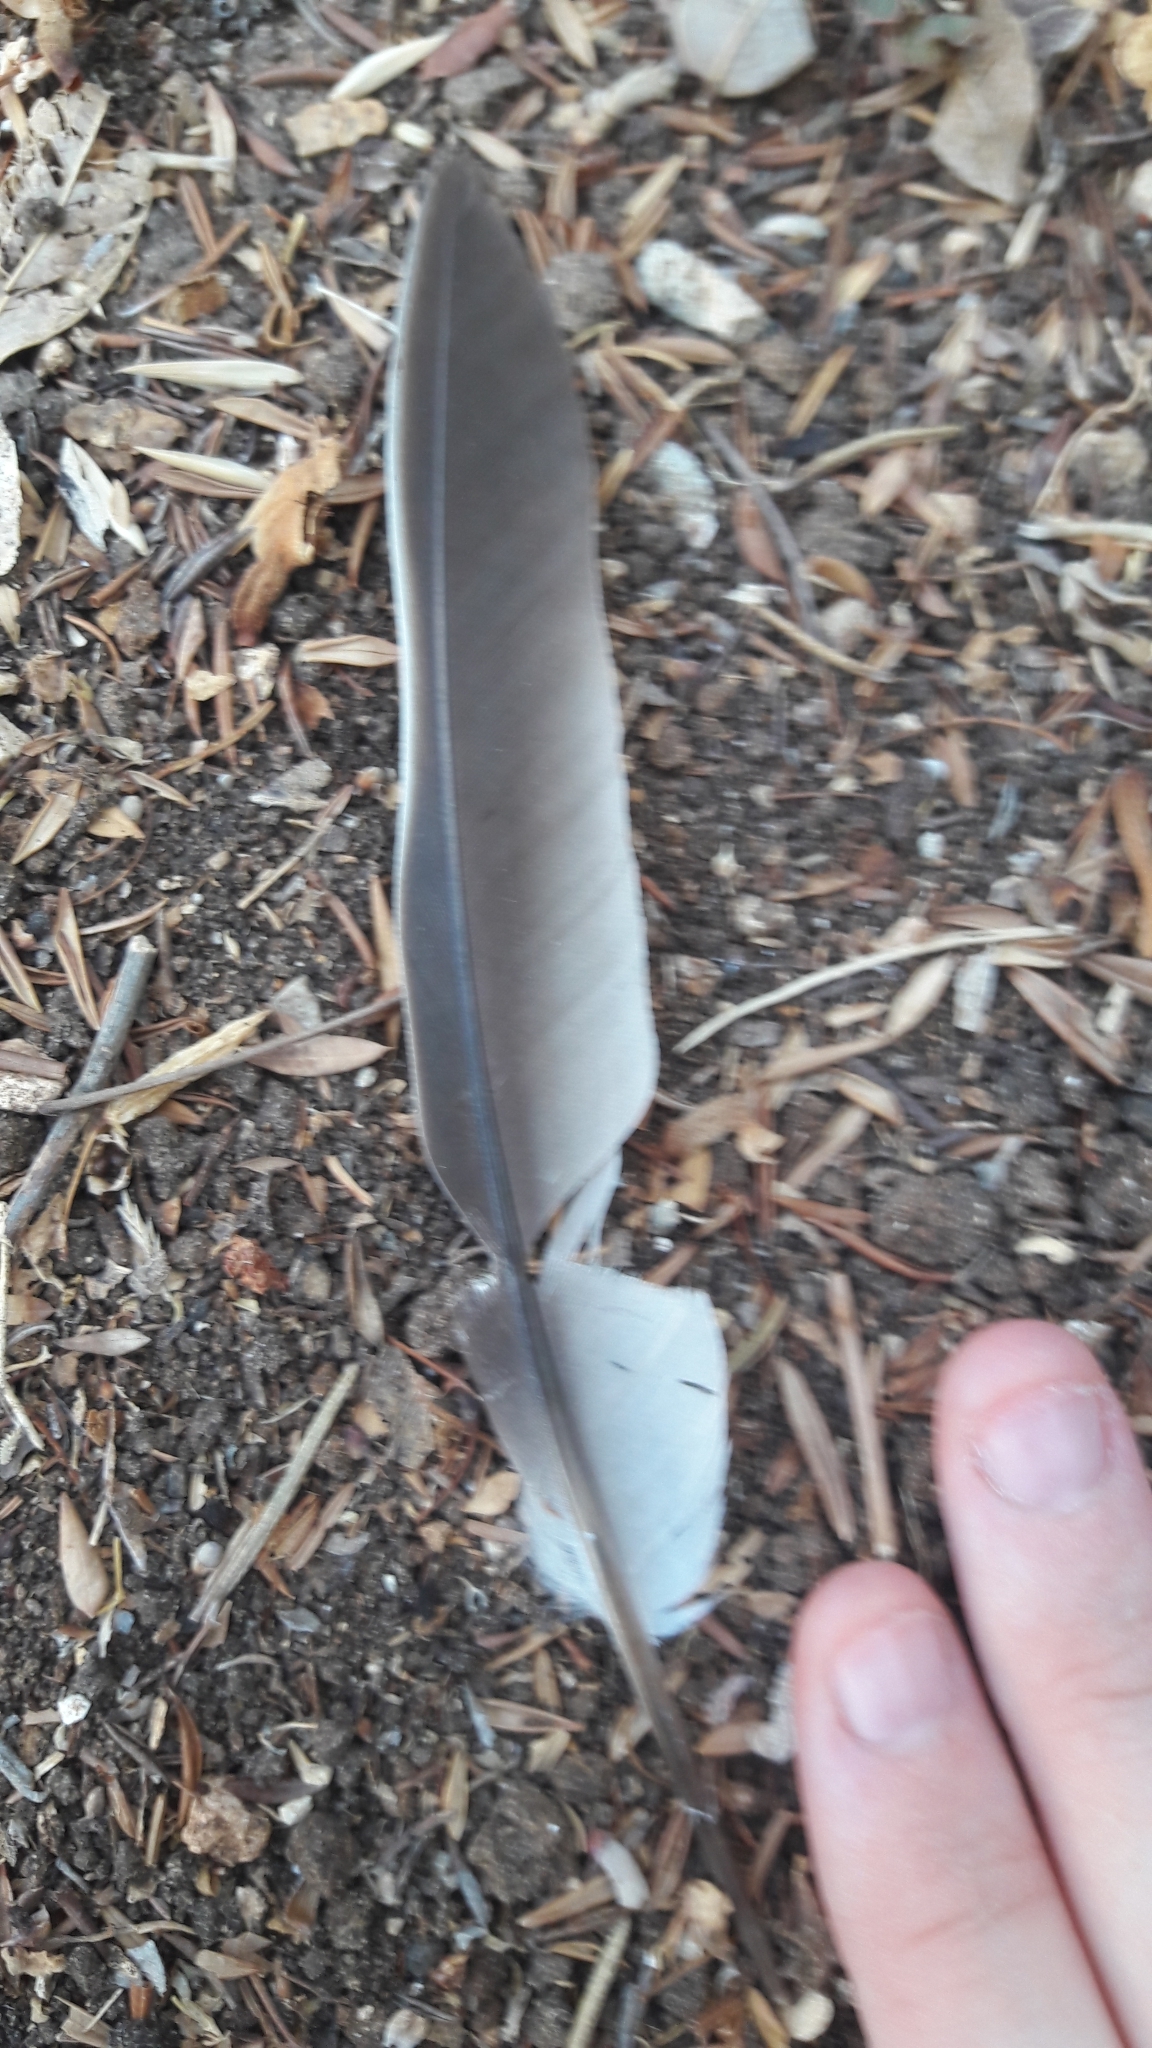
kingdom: Animalia
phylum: Chordata
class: Aves
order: Columbiformes
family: Columbidae
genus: Streptopelia
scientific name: Streptopelia decaocto
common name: Eurasian collared dove
